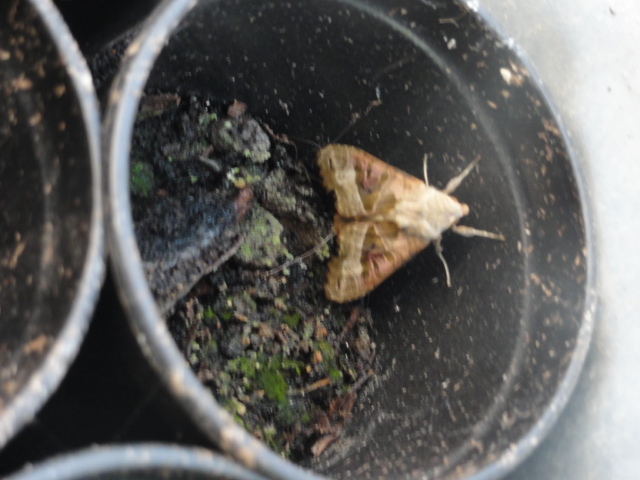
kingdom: Animalia
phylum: Arthropoda
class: Insecta
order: Lepidoptera
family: Noctuidae
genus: Phlogophora
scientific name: Phlogophora meticulosa
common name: Angle shades
